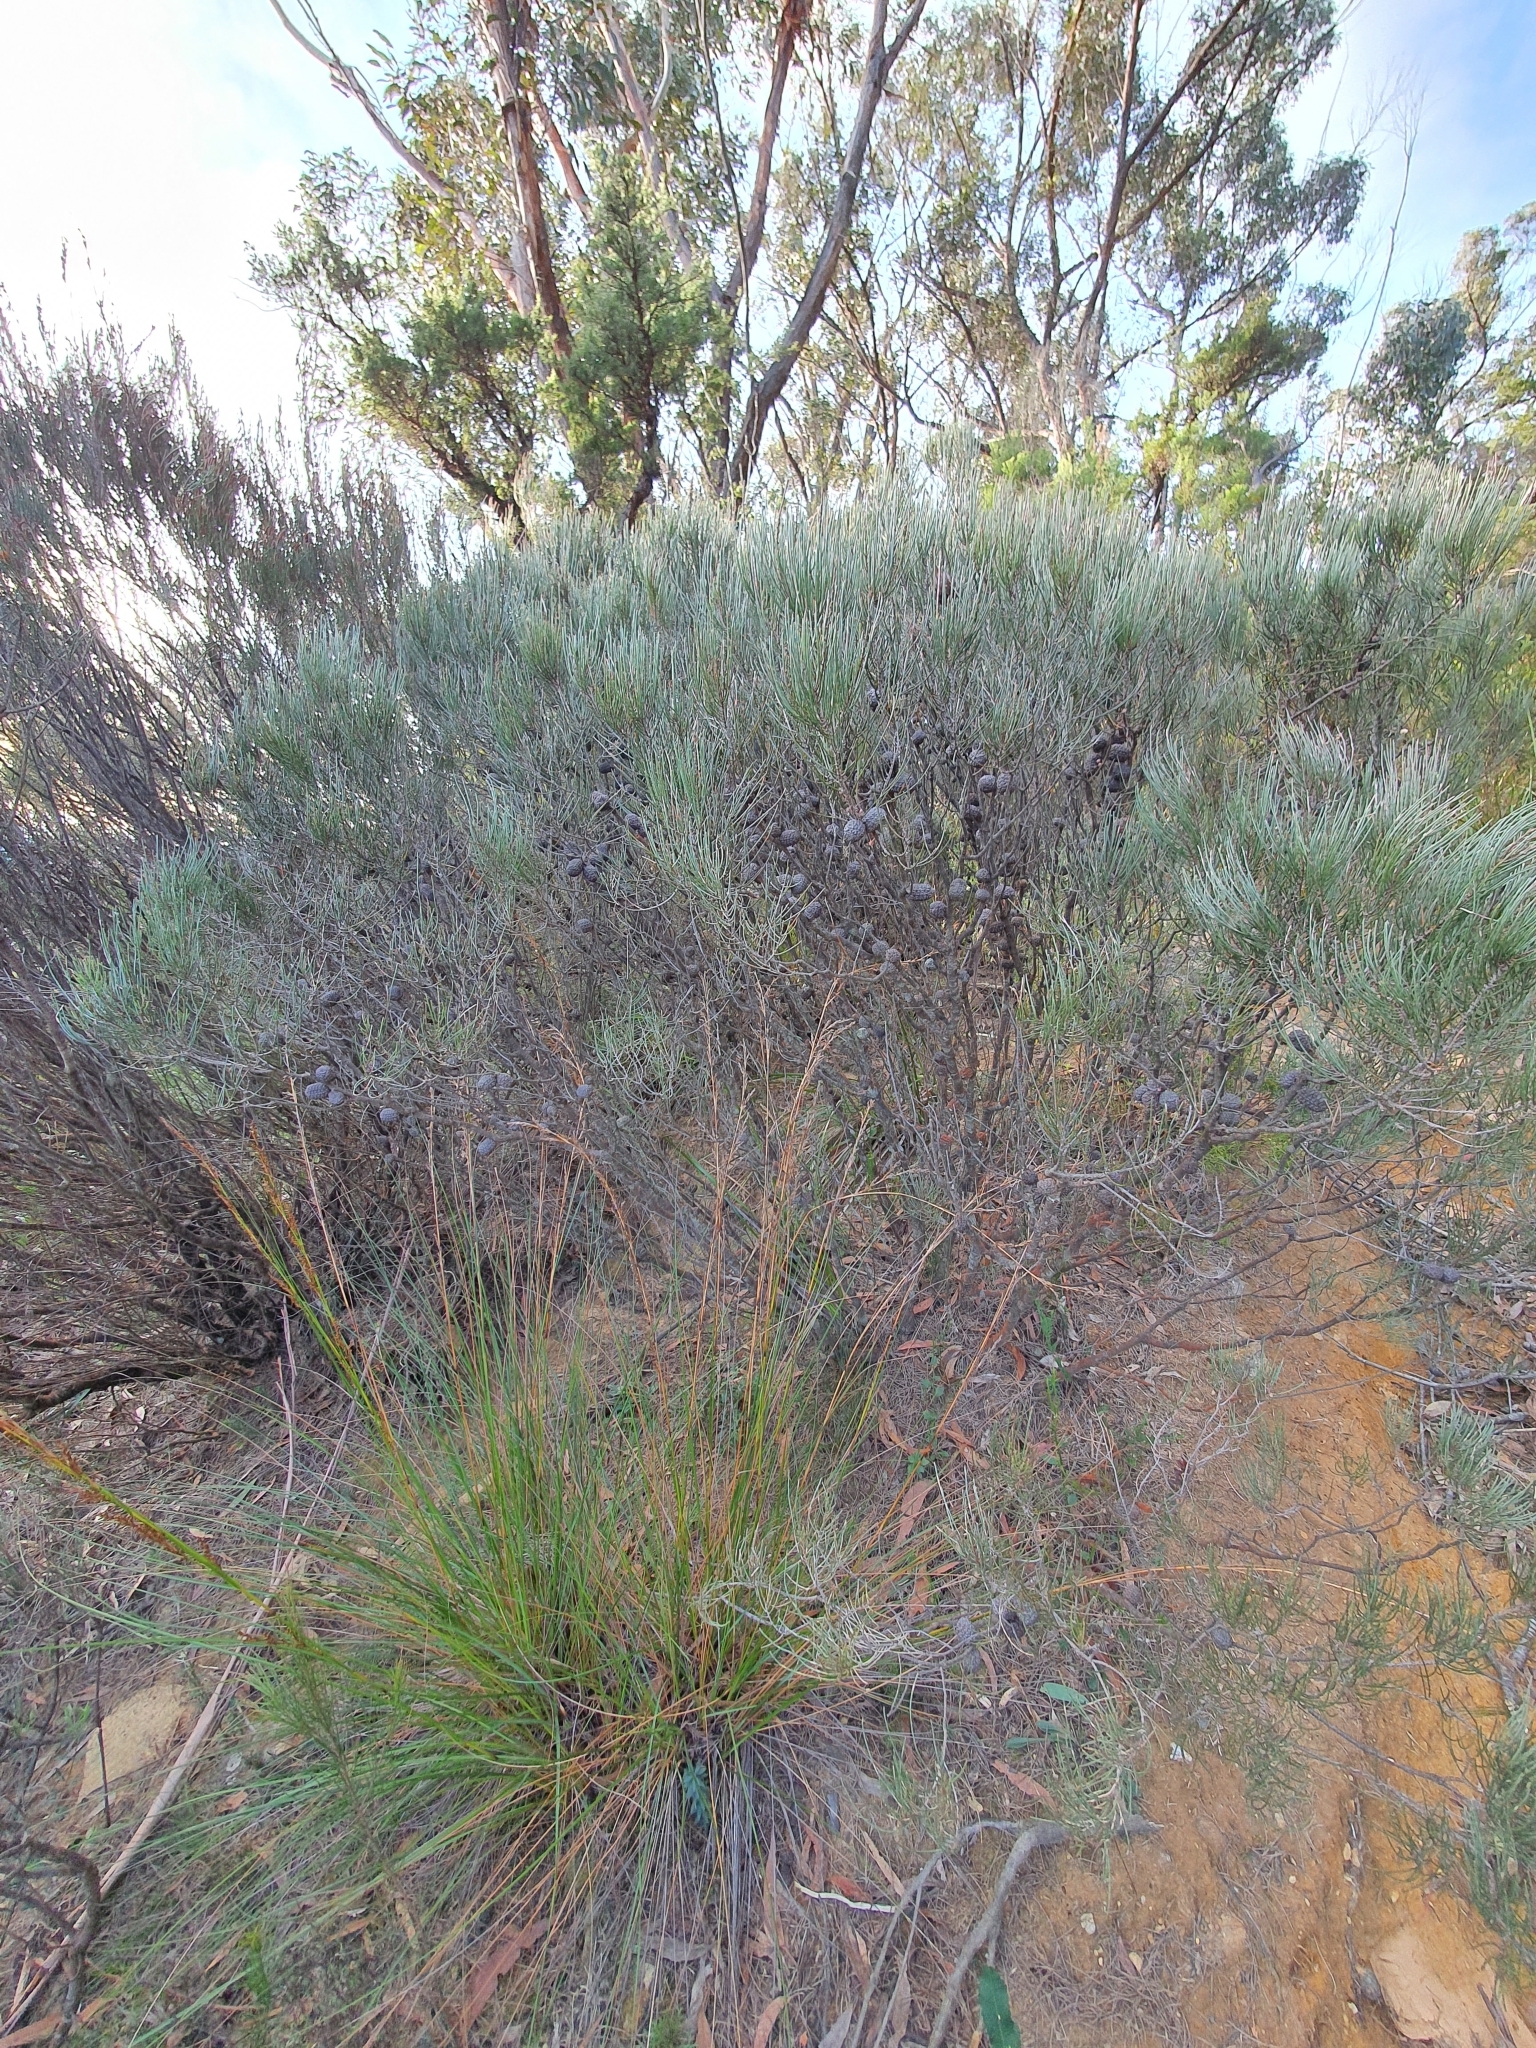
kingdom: Plantae
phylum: Tracheophyta
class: Magnoliopsida
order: Fagales
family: Casuarinaceae
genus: Allocasuarina
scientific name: Allocasuarina nana
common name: Stunted she-oak
